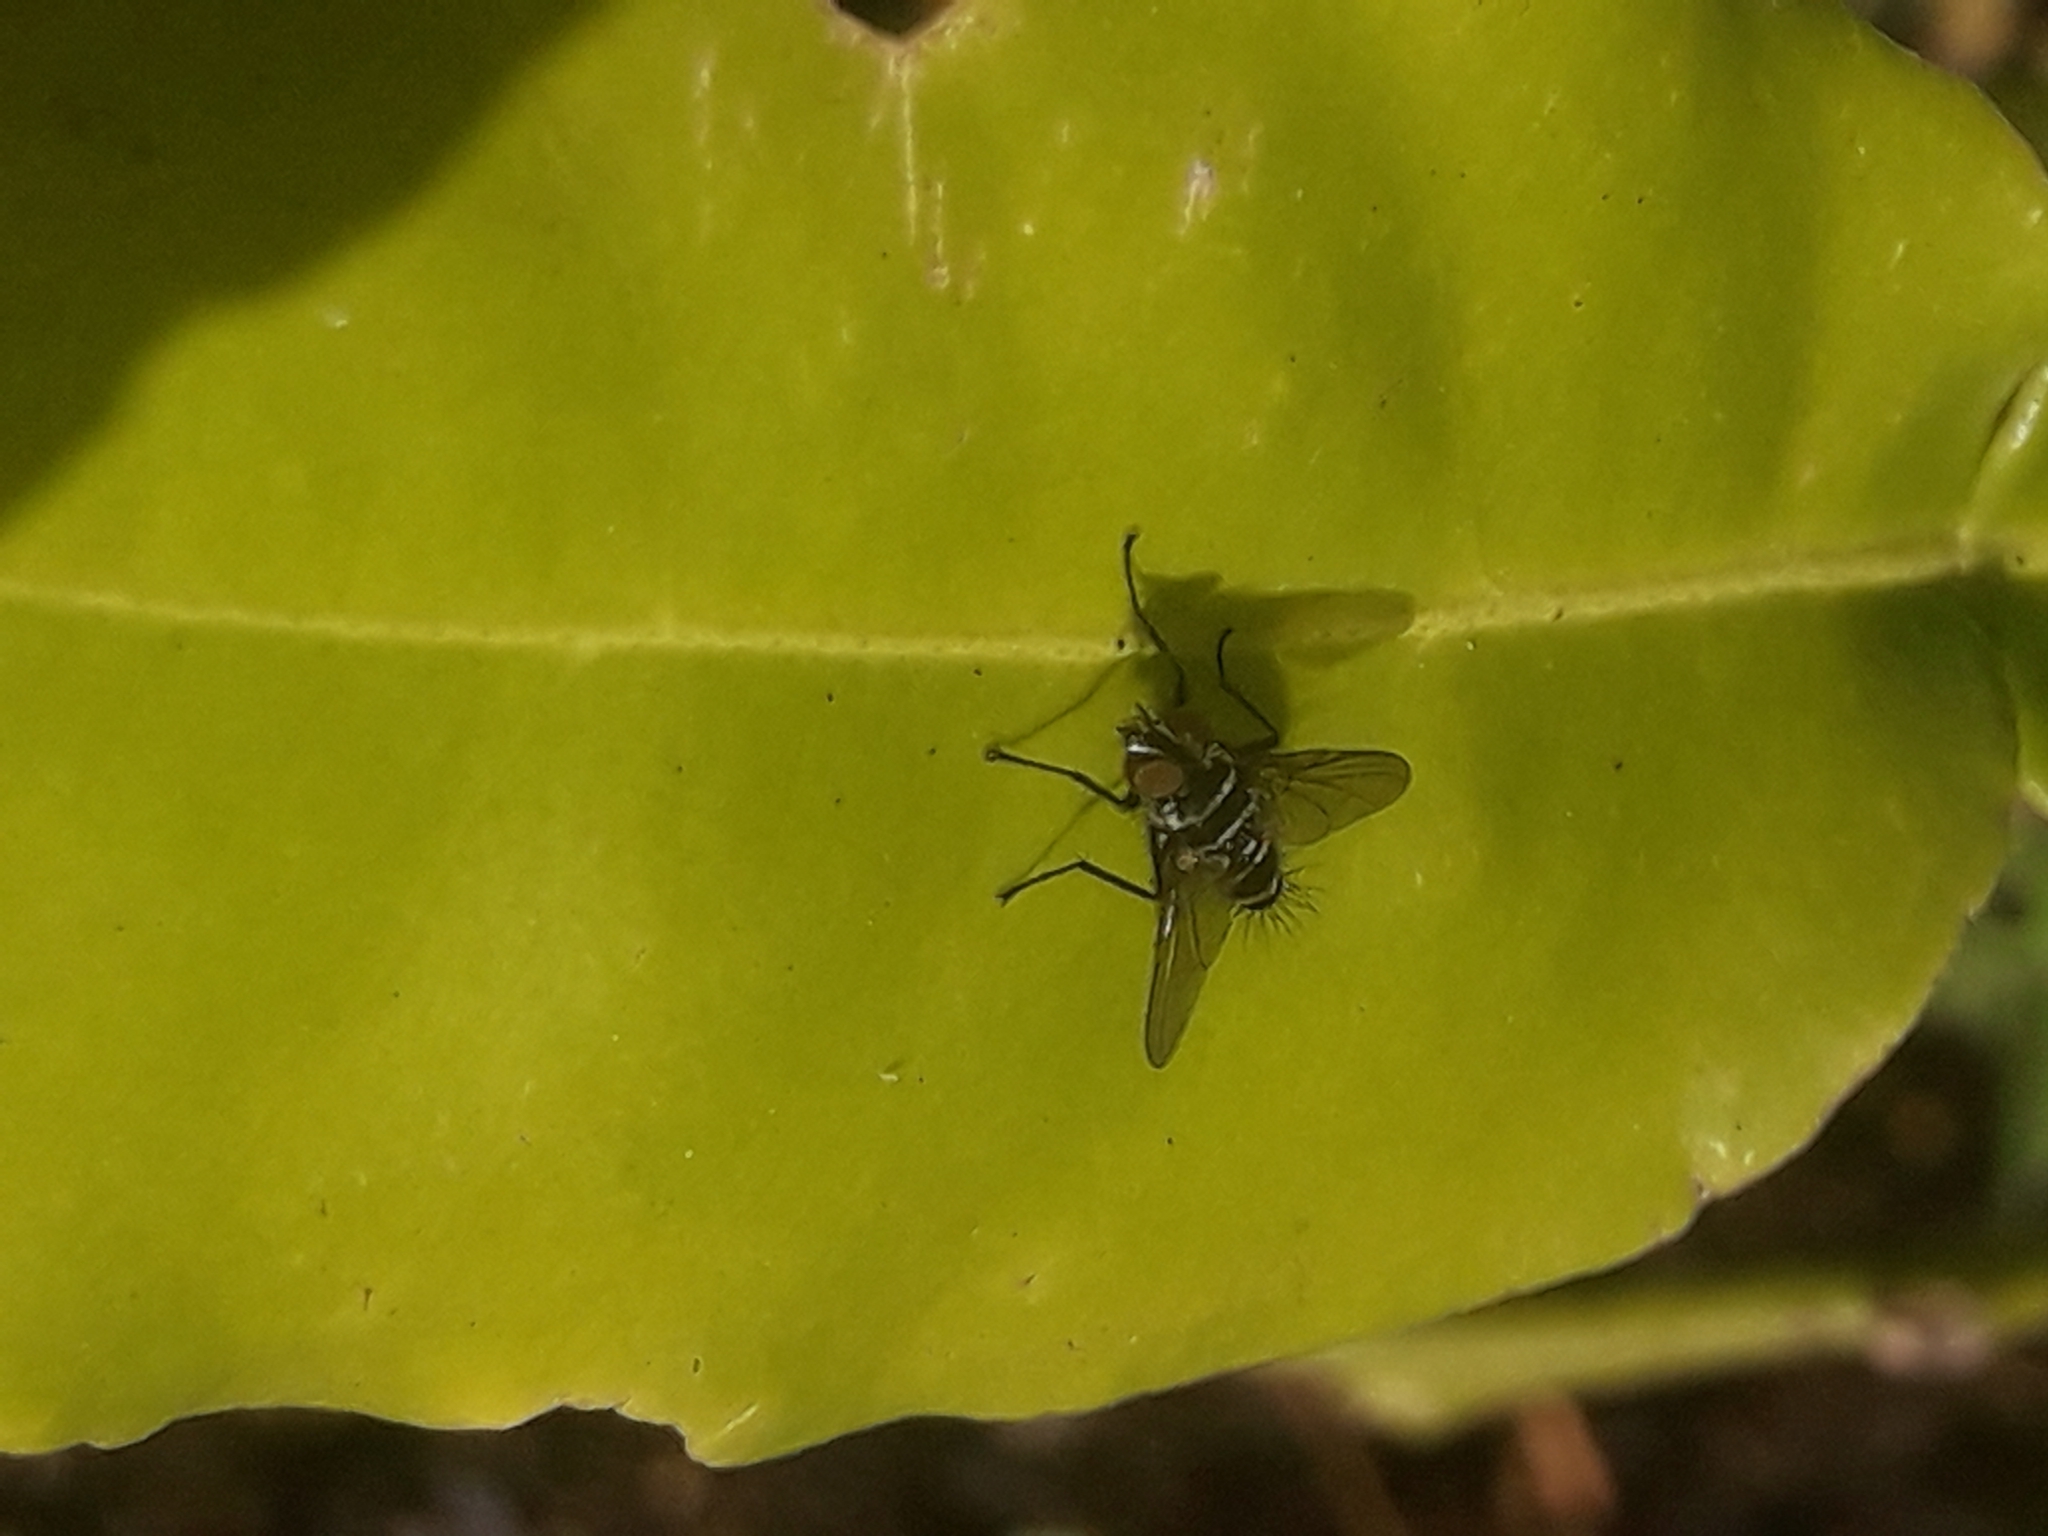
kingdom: Animalia
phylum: Arthropoda
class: Insecta
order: Diptera
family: Tachinidae
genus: Trigonospila
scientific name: Trigonospila brevifacies
